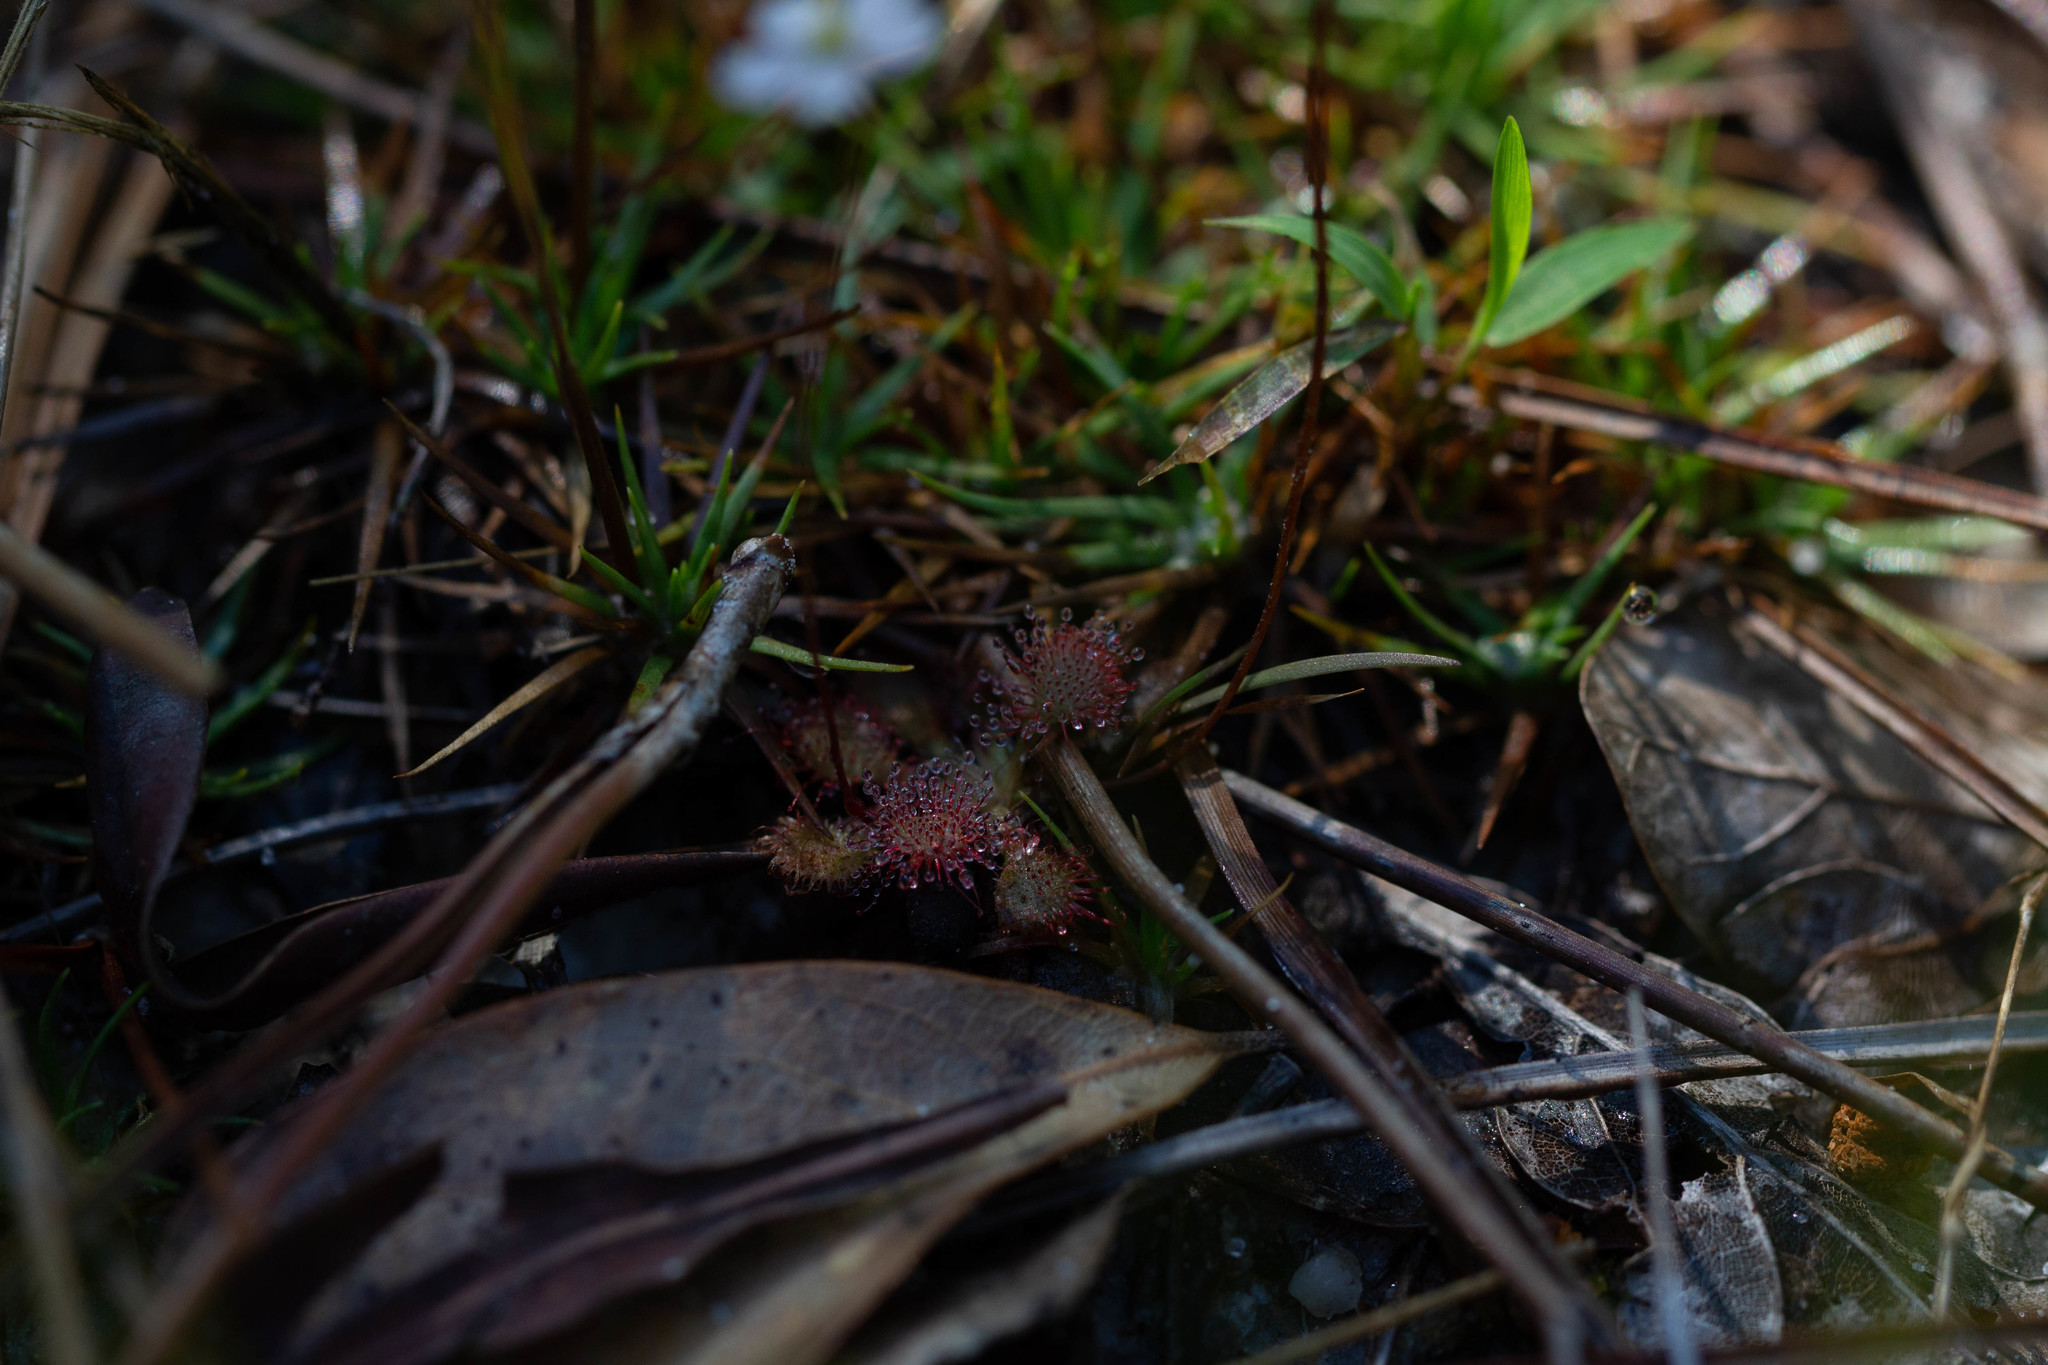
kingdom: Plantae
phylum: Tracheophyta
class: Magnoliopsida
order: Caryophyllales
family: Droseraceae
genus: Drosera
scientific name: Drosera capillaris
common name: Pink sundew
